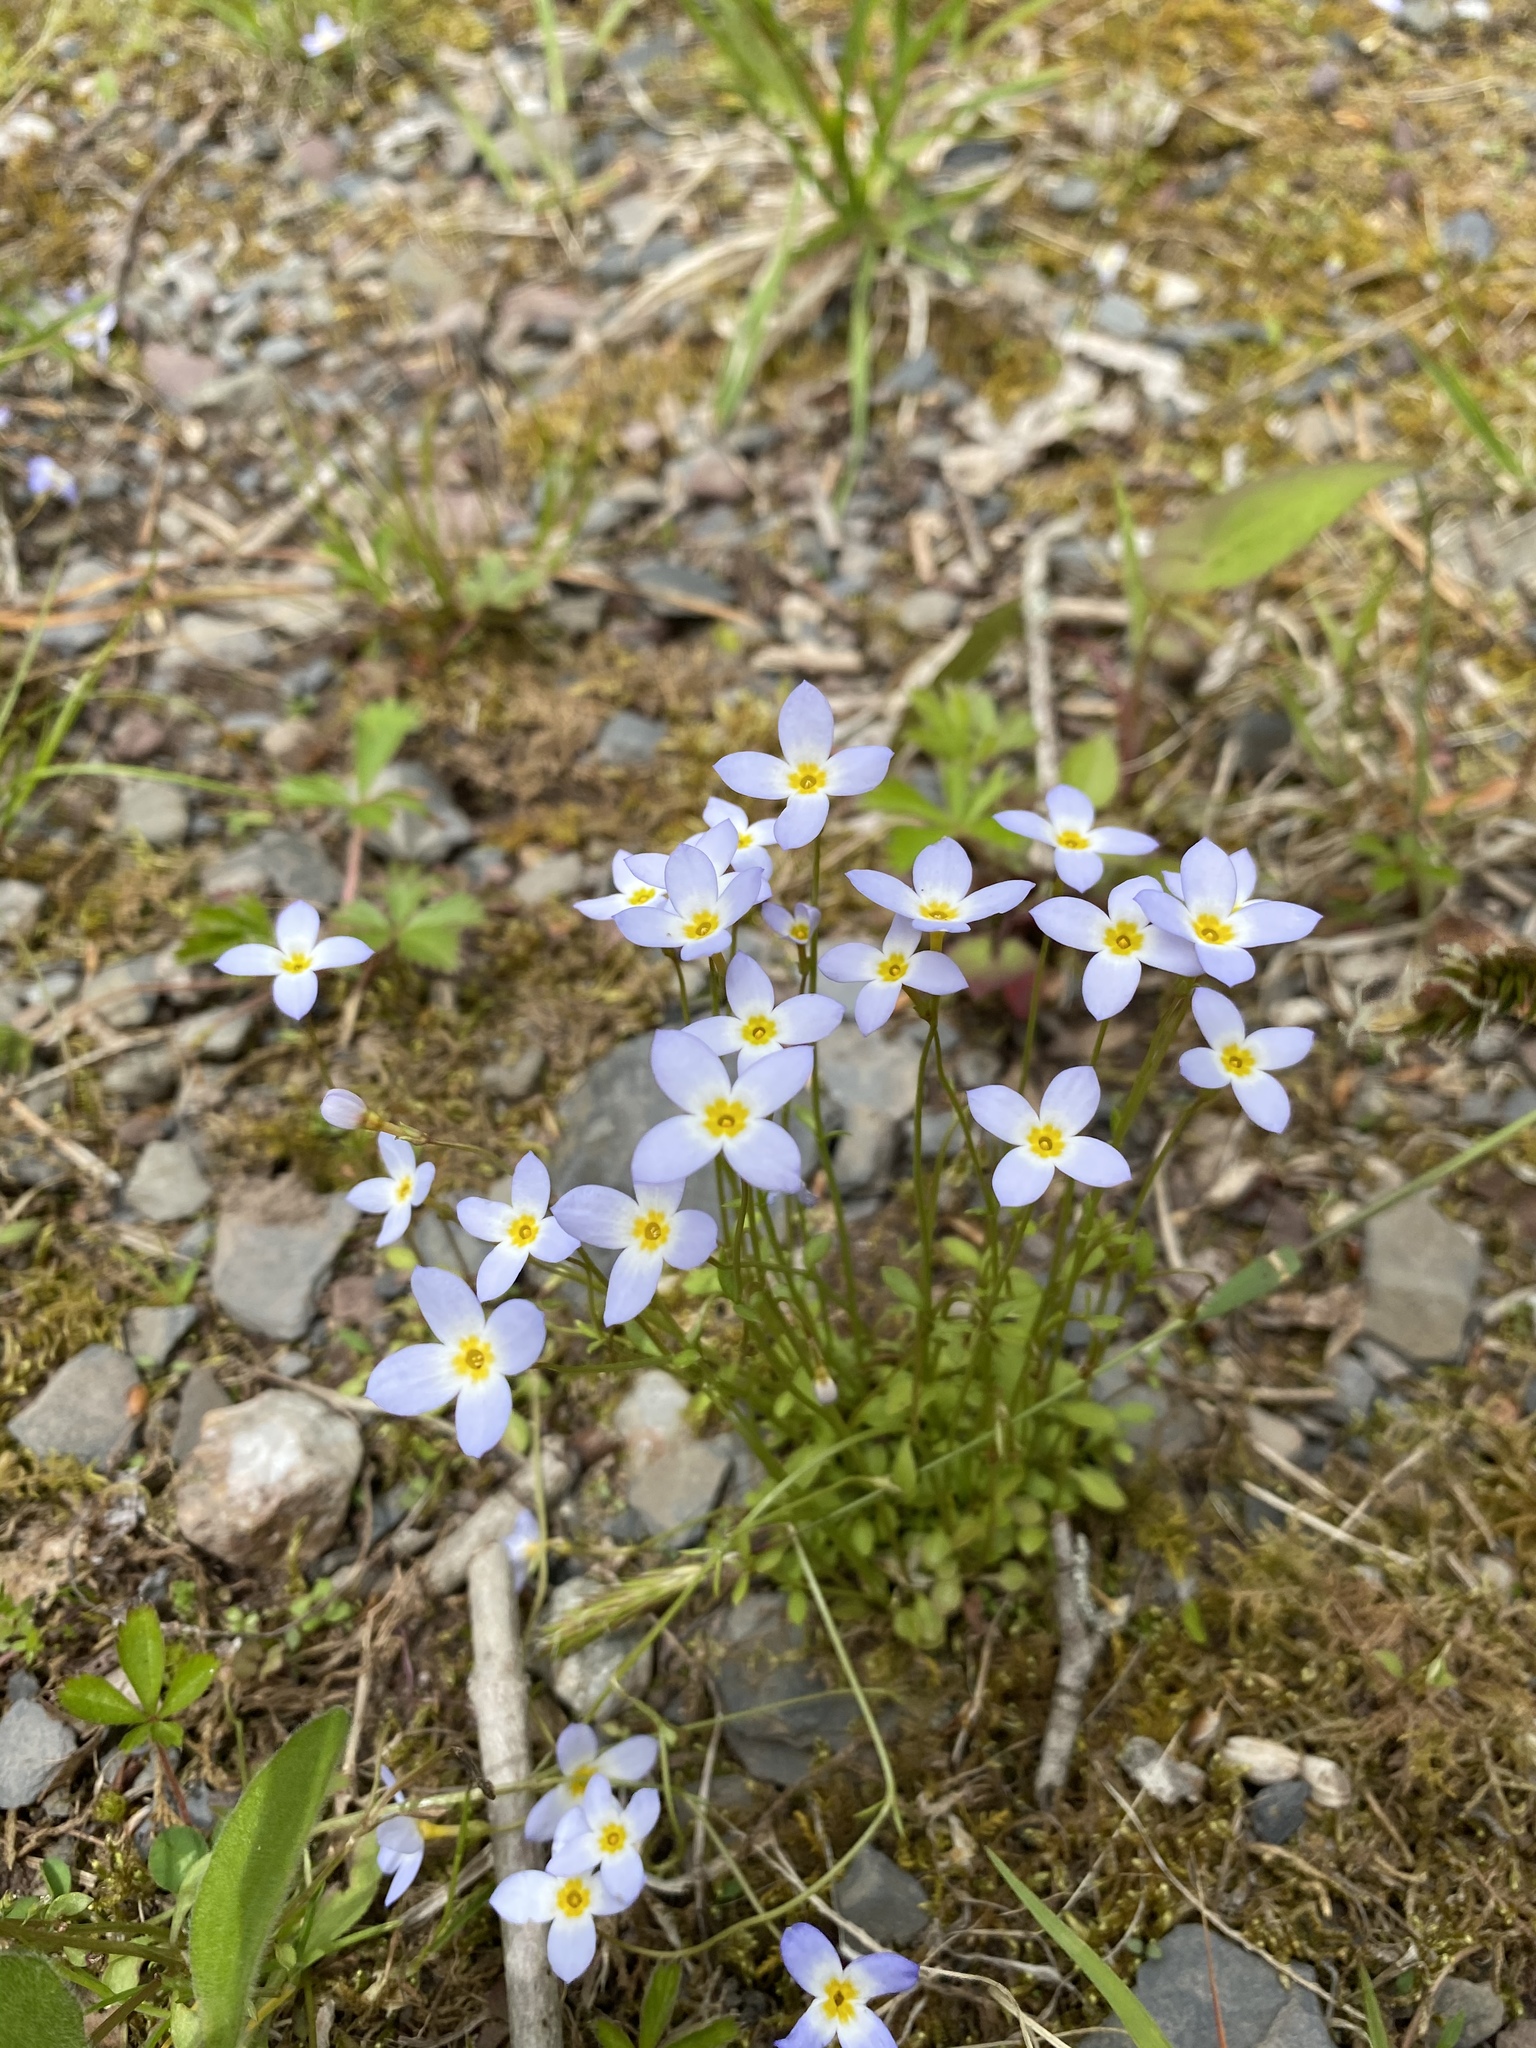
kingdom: Plantae
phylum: Tracheophyta
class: Magnoliopsida
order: Gentianales
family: Rubiaceae
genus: Houstonia
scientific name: Houstonia caerulea
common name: Bluets
